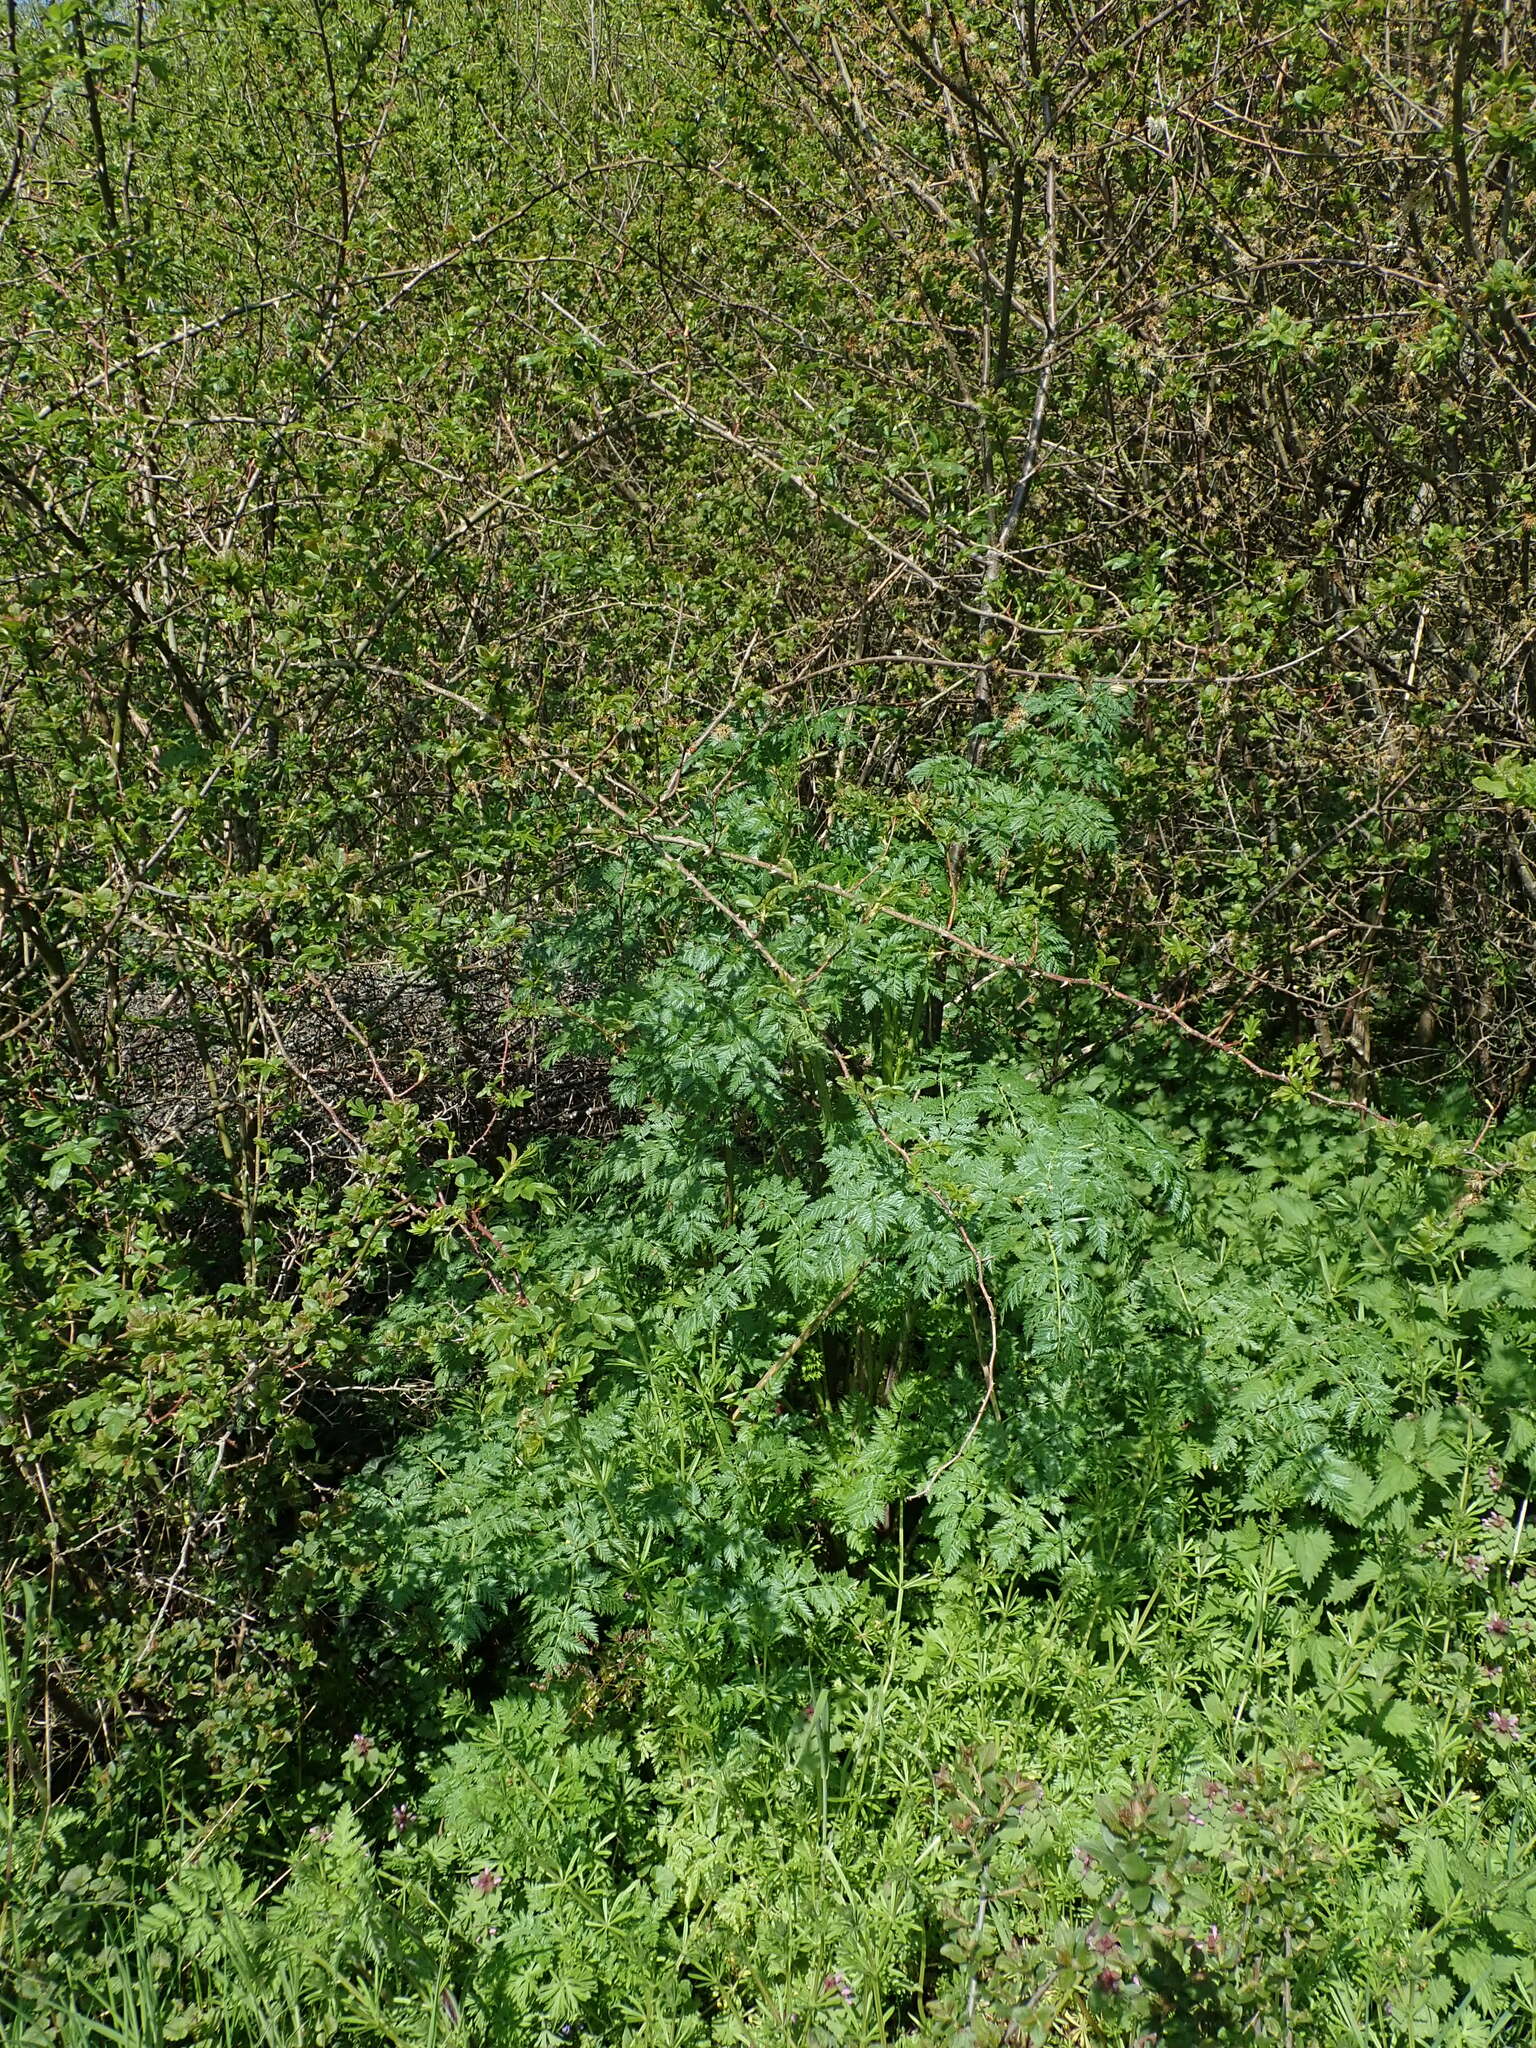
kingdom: Plantae
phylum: Tracheophyta
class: Magnoliopsida
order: Apiales
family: Apiaceae
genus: Conium
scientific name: Conium maculatum
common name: Hemlock
